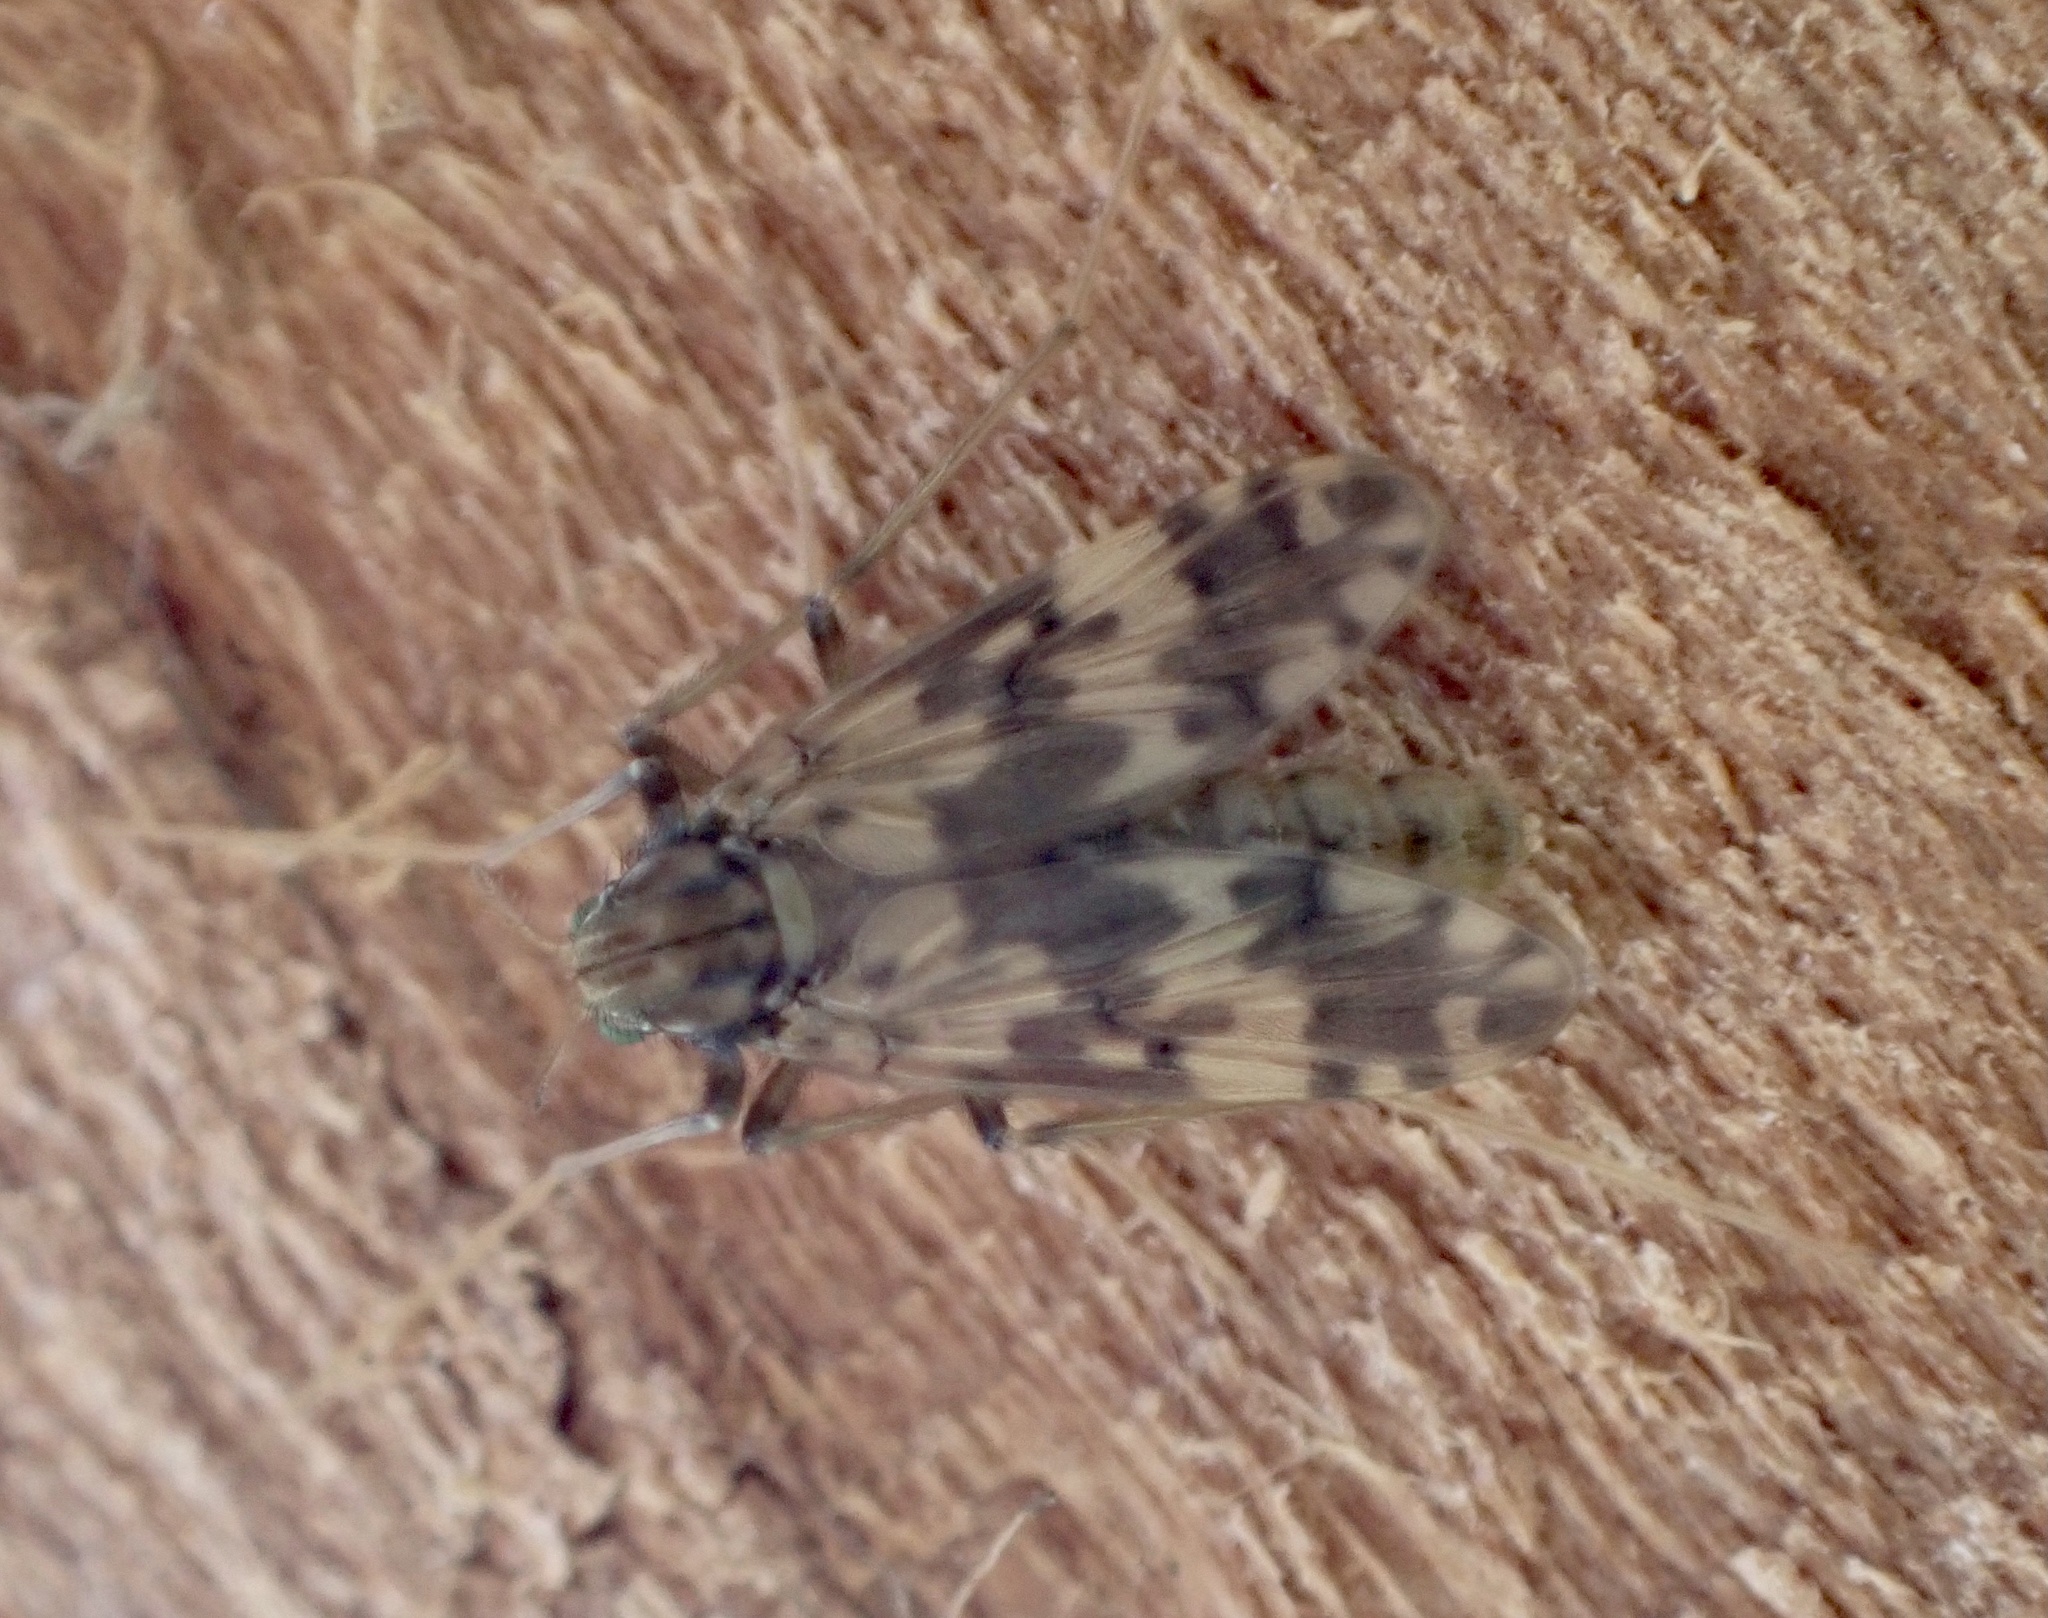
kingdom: Animalia
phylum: Arthropoda
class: Insecta
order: Diptera
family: Chironomidae
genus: Psectrotanypus
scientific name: Psectrotanypus varius
